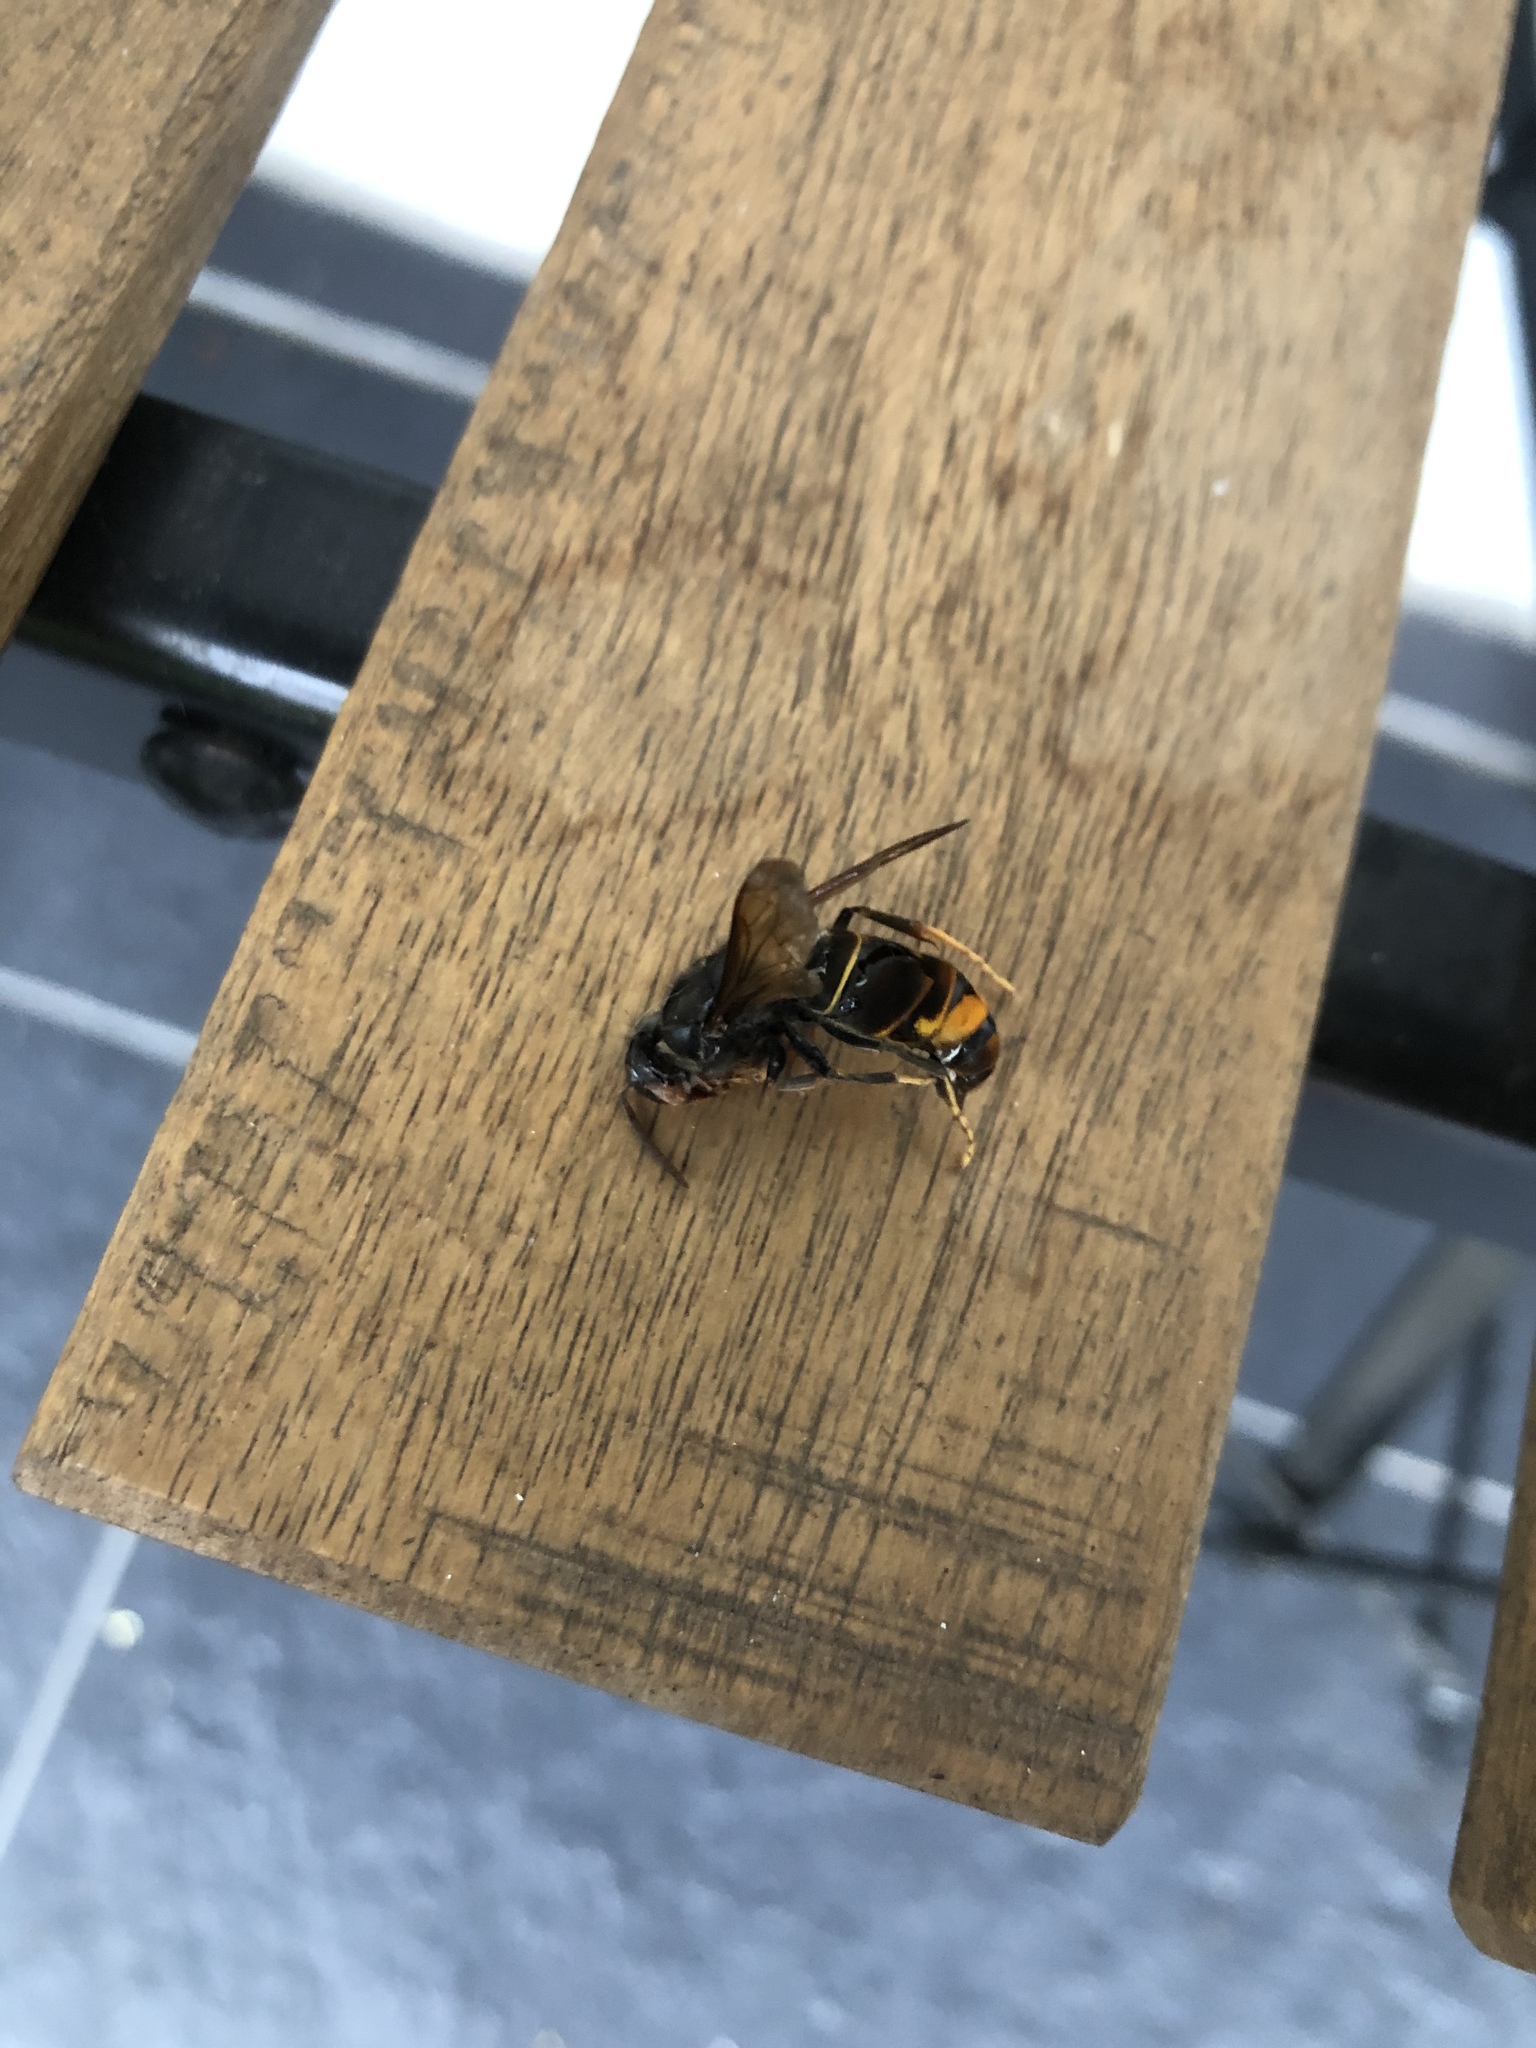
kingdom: Animalia
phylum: Arthropoda
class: Insecta
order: Hymenoptera
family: Vespidae
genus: Vespa
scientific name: Vespa velutina
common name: Asian hornet
